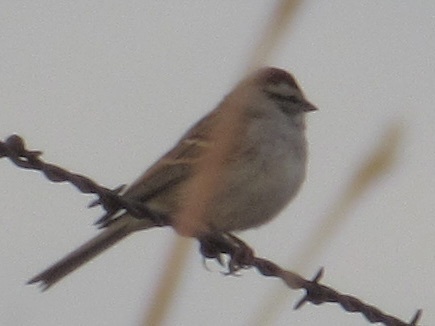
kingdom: Animalia
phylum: Chordata
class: Aves
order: Passeriformes
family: Passerellidae
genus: Spizella
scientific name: Spizella passerina
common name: Chipping sparrow
